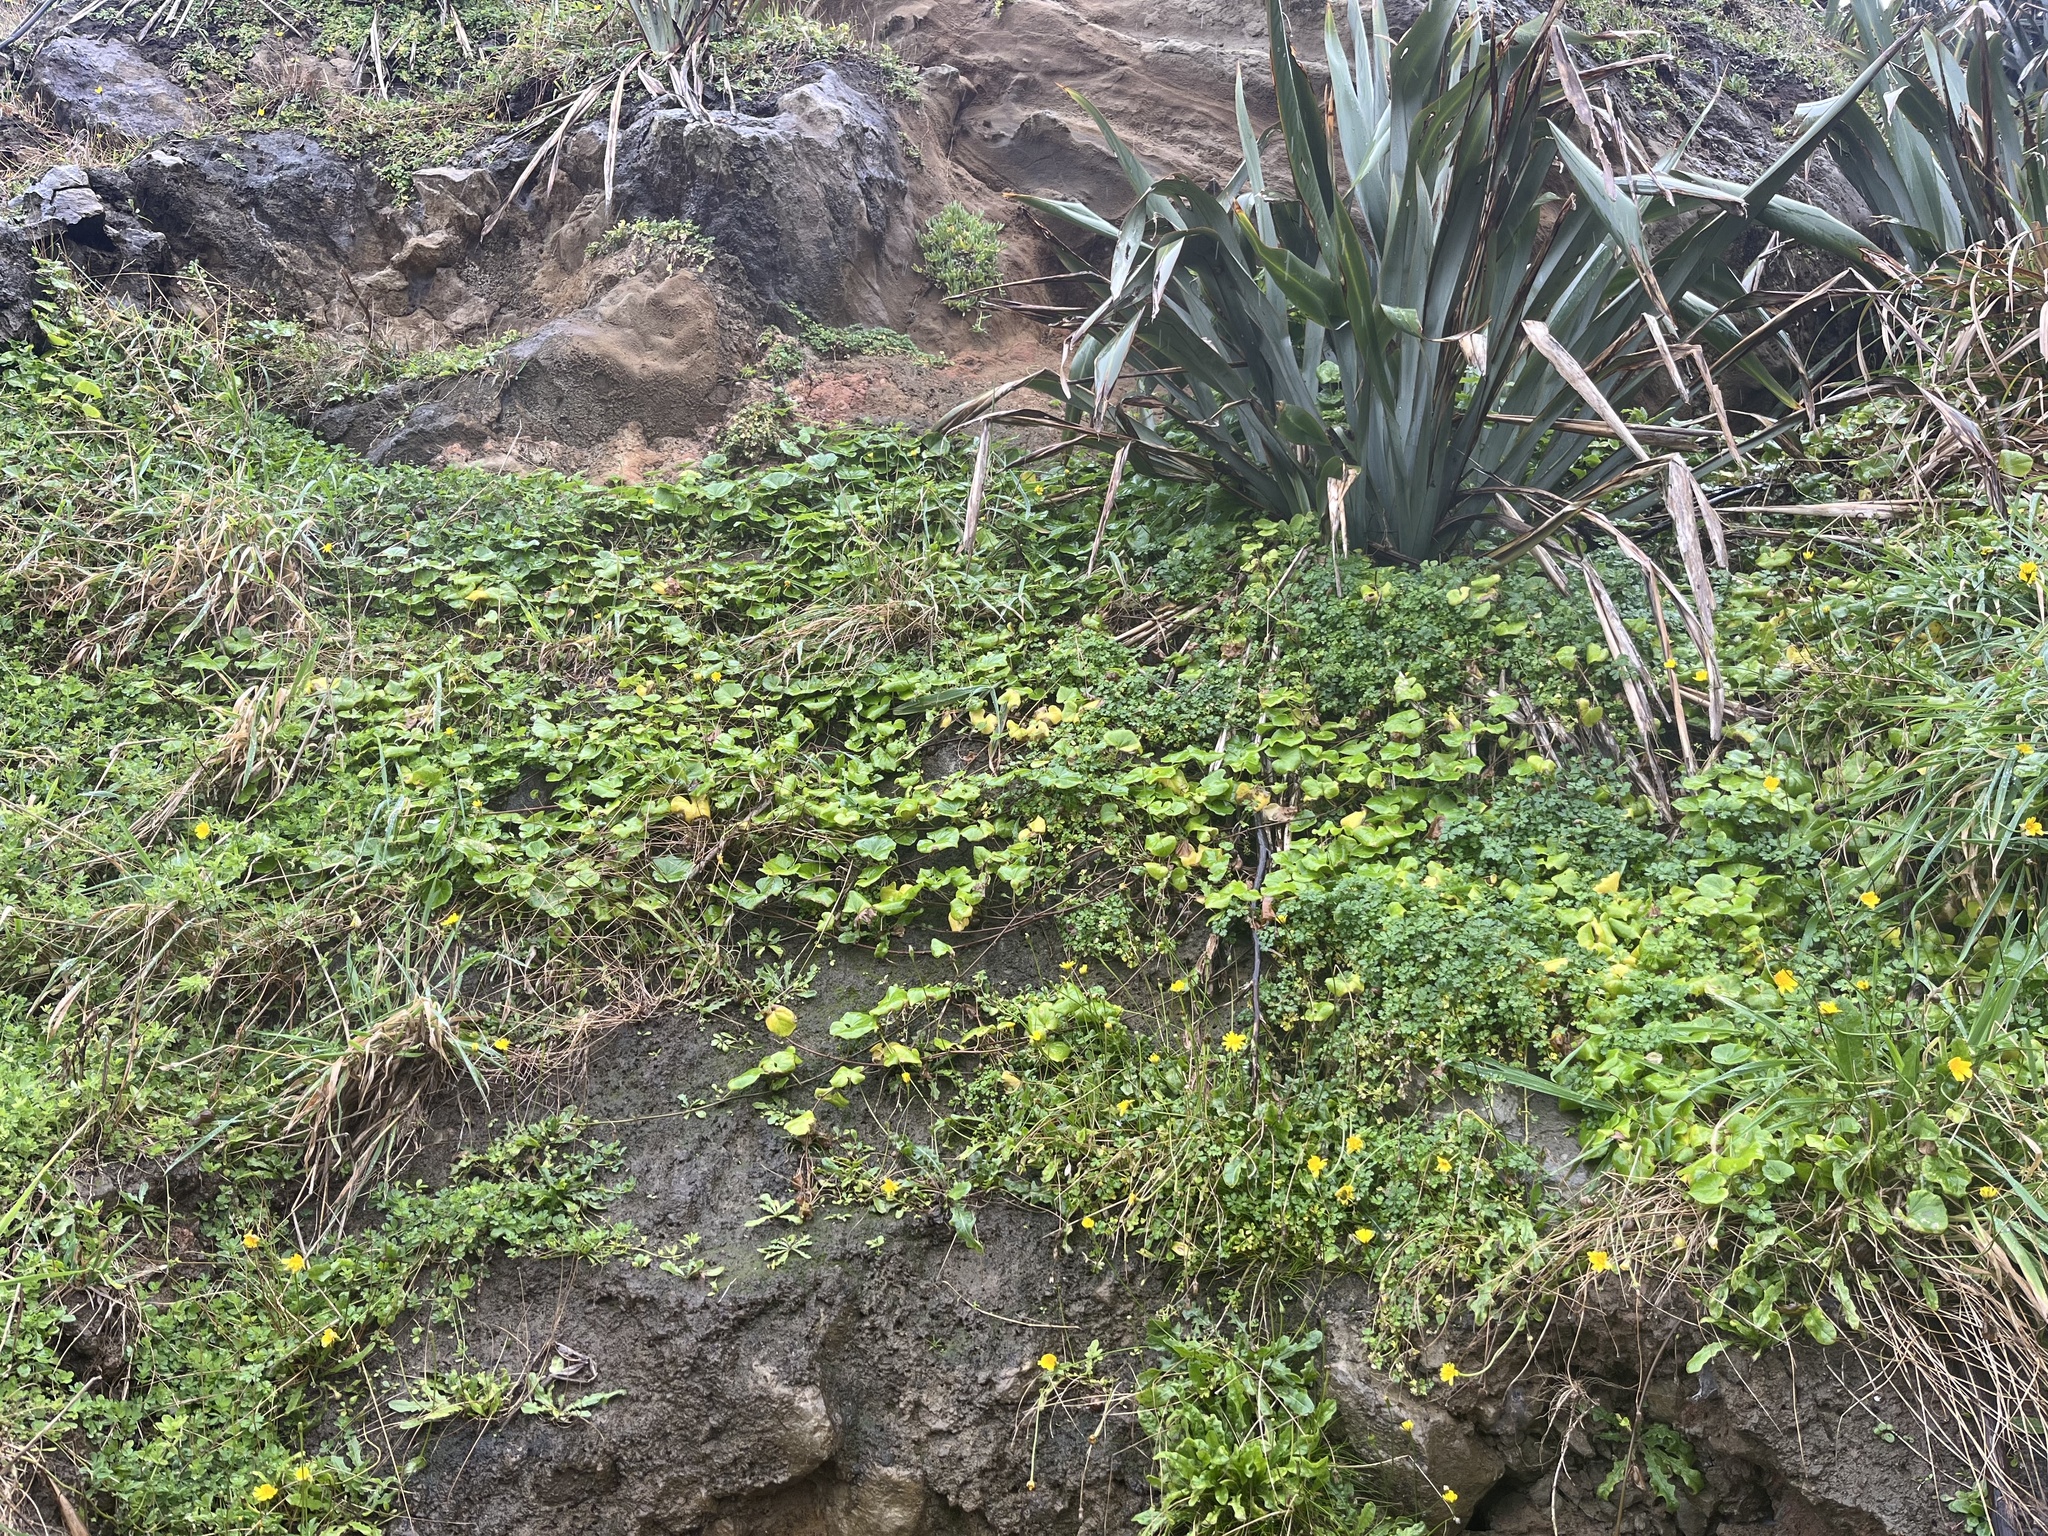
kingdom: Plantae
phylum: Tracheophyta
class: Magnoliopsida
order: Solanales
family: Convolvulaceae
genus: Calystegia
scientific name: Calystegia soldanella
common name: Sea bindweed
